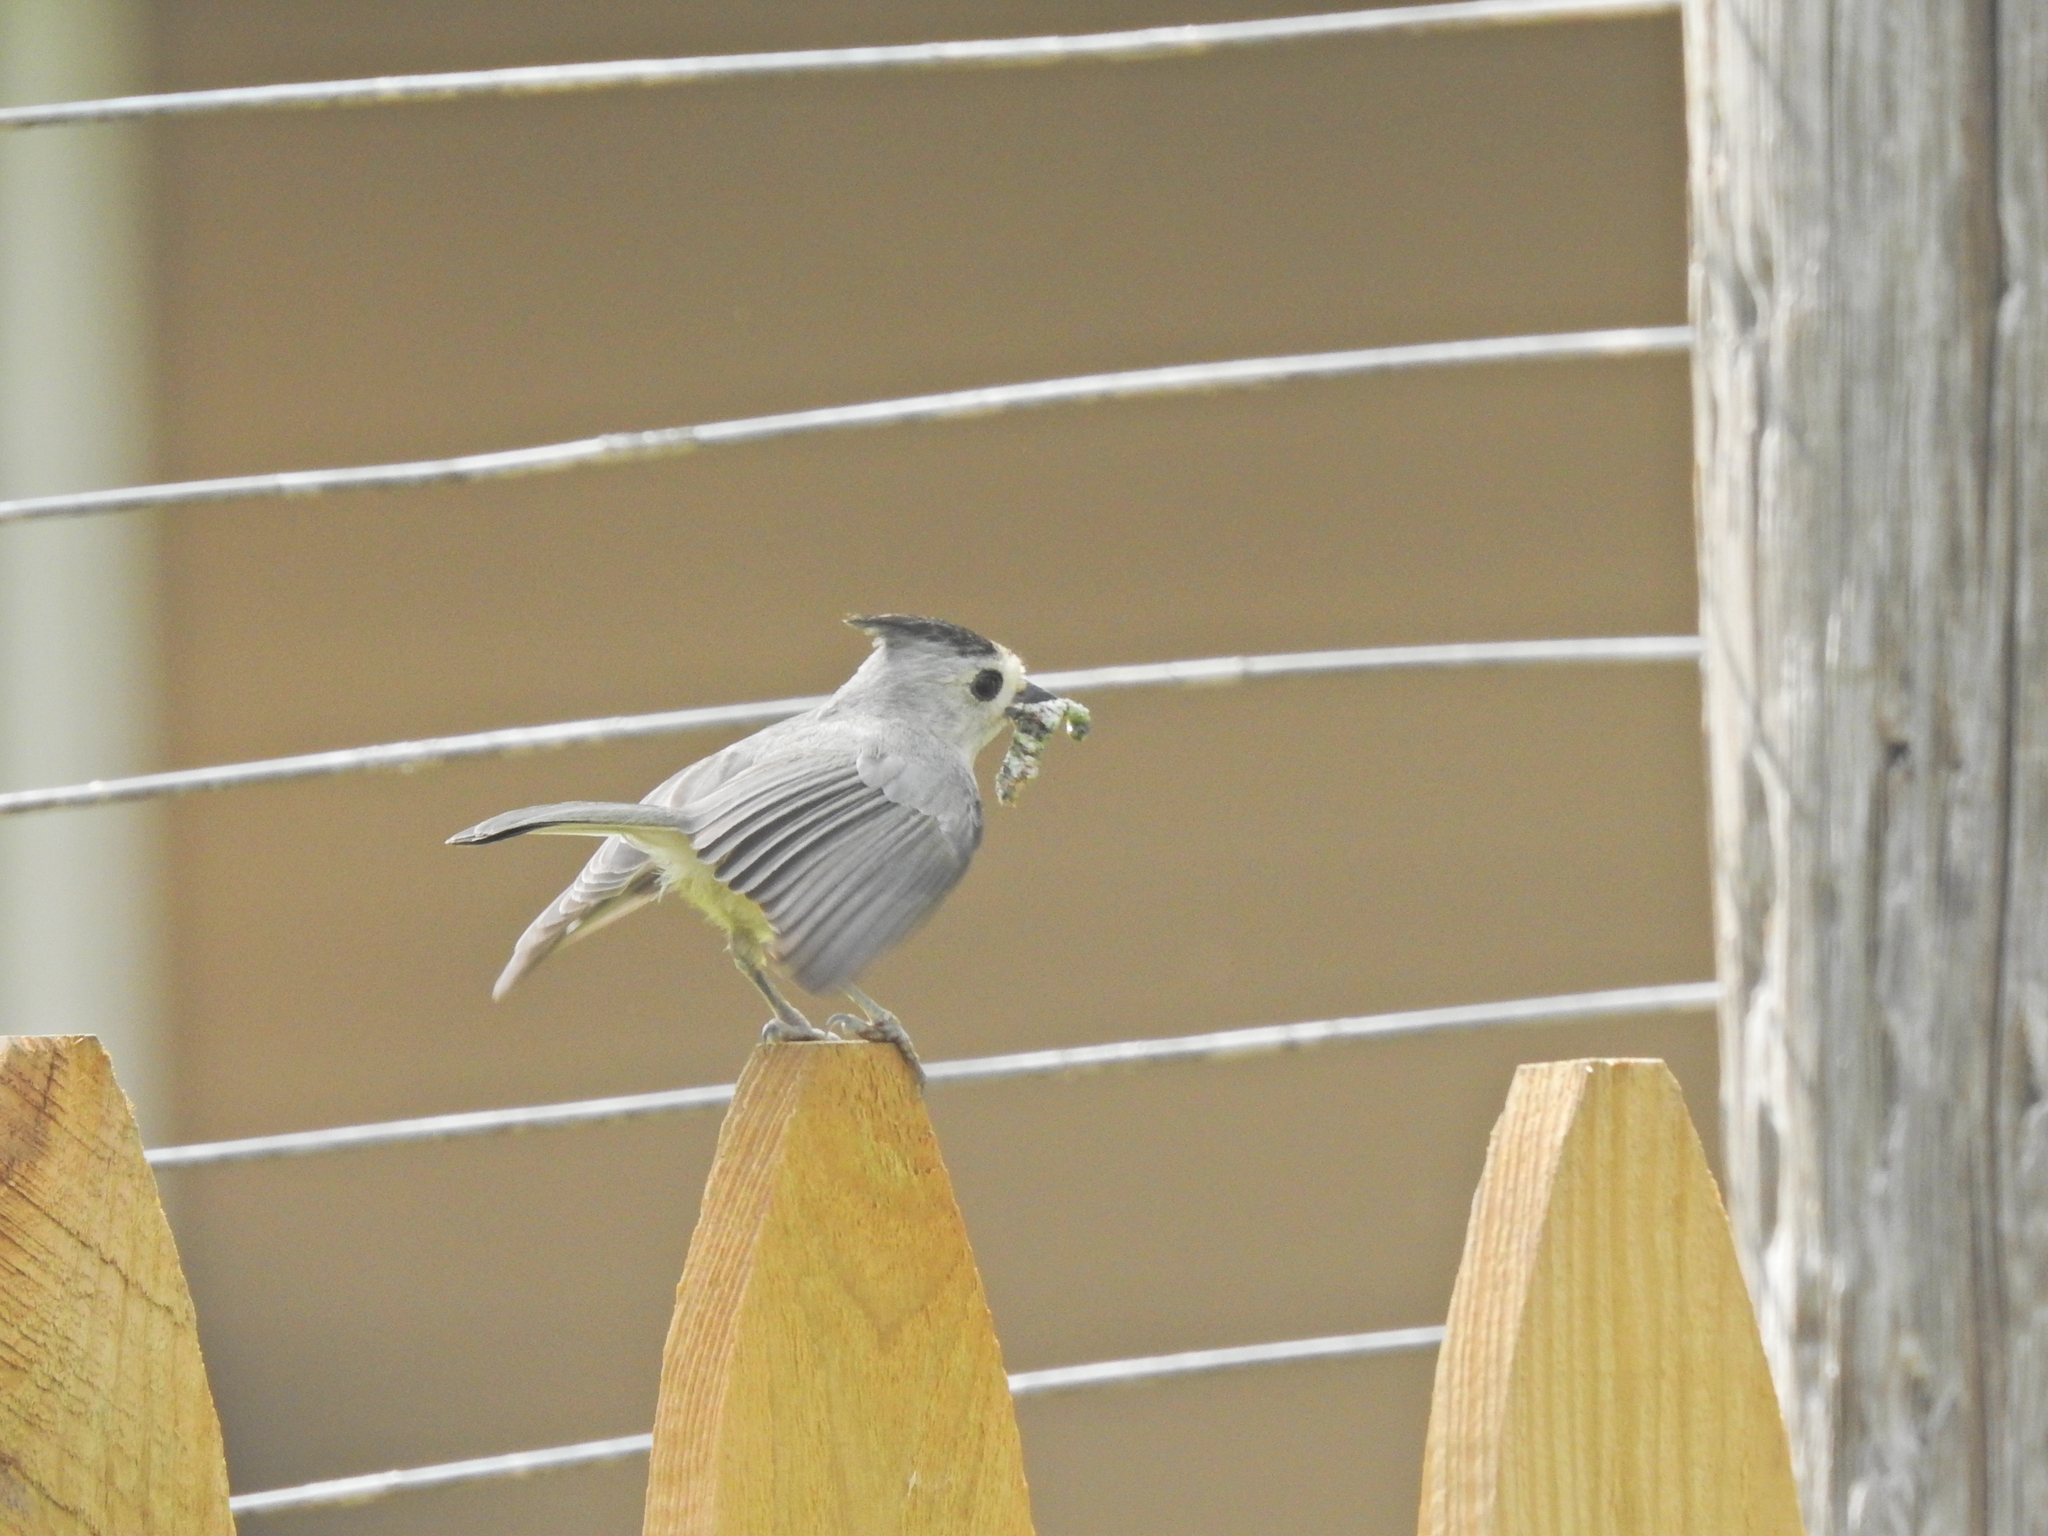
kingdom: Animalia
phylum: Chordata
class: Aves
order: Passeriformes
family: Paridae
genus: Baeolophus
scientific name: Baeolophus atricristatus
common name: Black-crested titmouse
